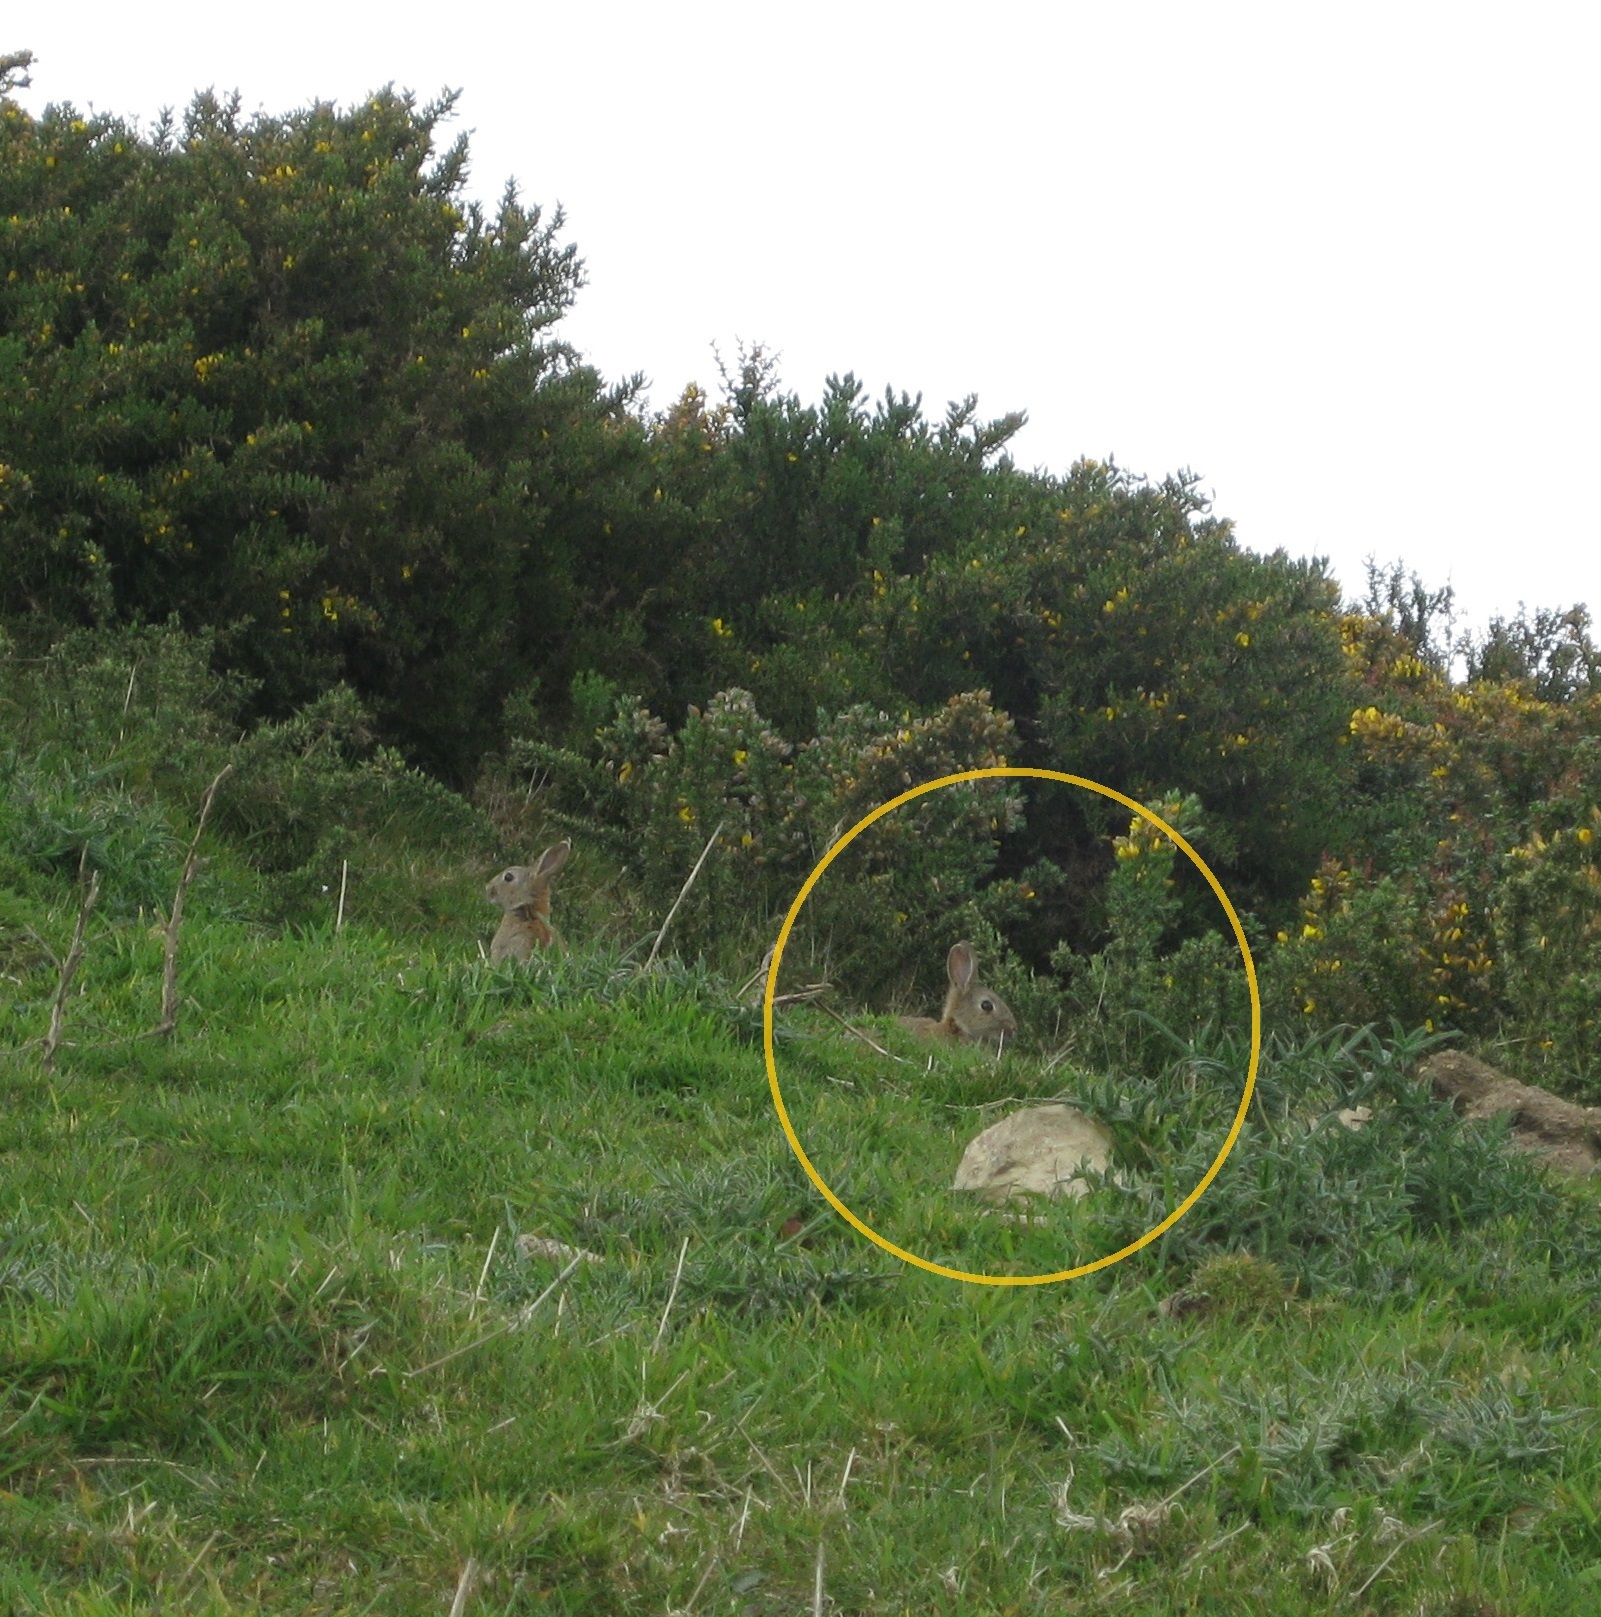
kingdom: Animalia
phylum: Chordata
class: Mammalia
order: Lagomorpha
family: Leporidae
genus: Oryctolagus
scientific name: Oryctolagus cuniculus
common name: European rabbit
